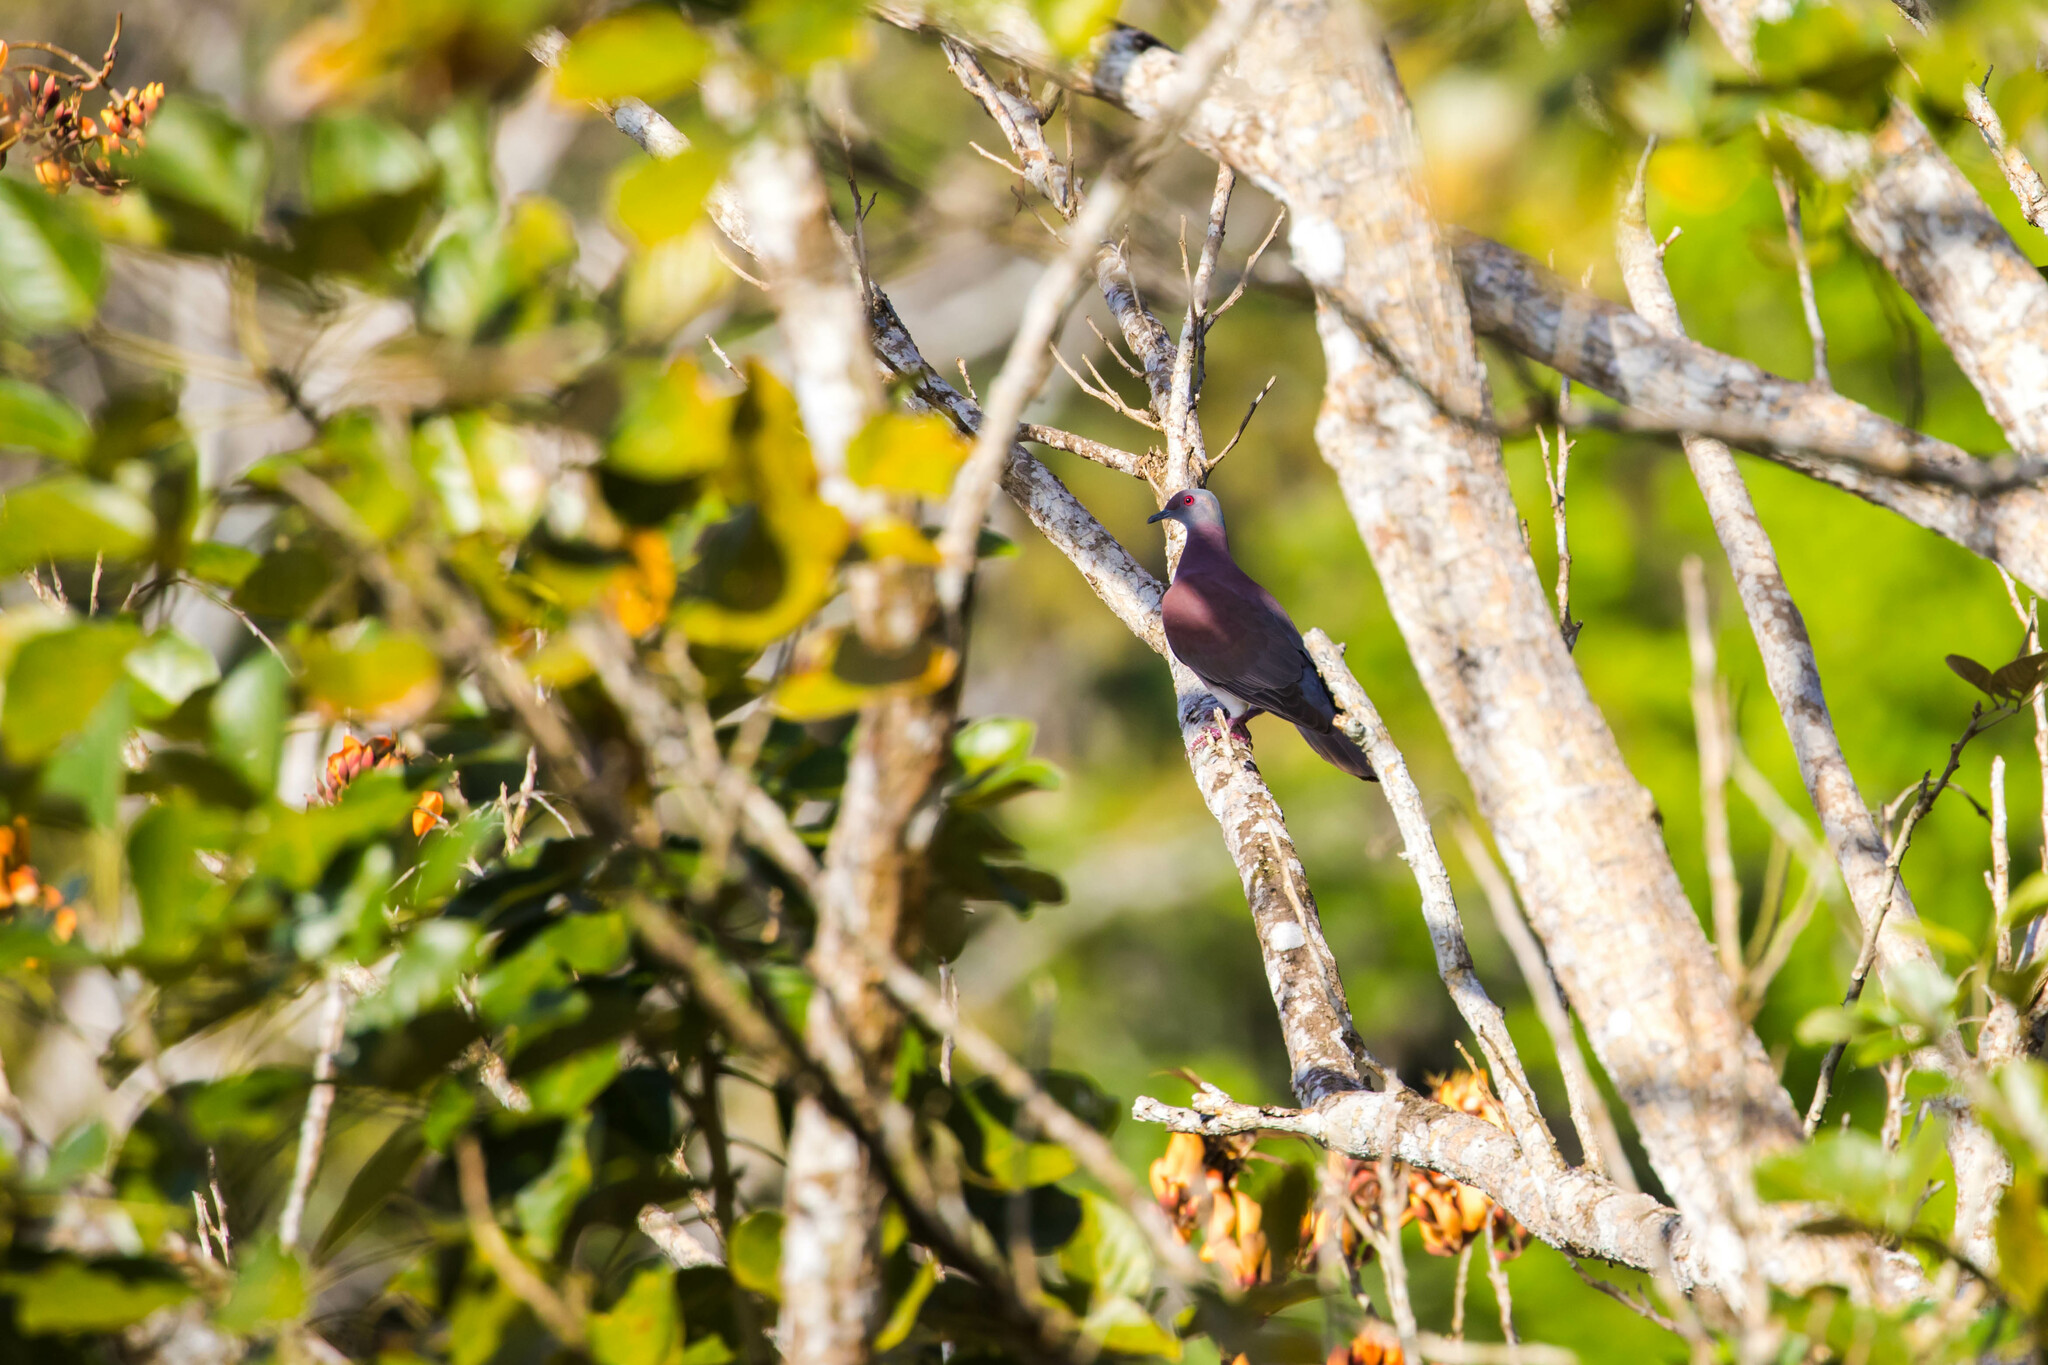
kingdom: Animalia
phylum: Chordata
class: Aves
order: Columbiformes
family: Columbidae
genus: Patagioenas
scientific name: Patagioenas cayennensis
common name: Pale-vented pigeon
